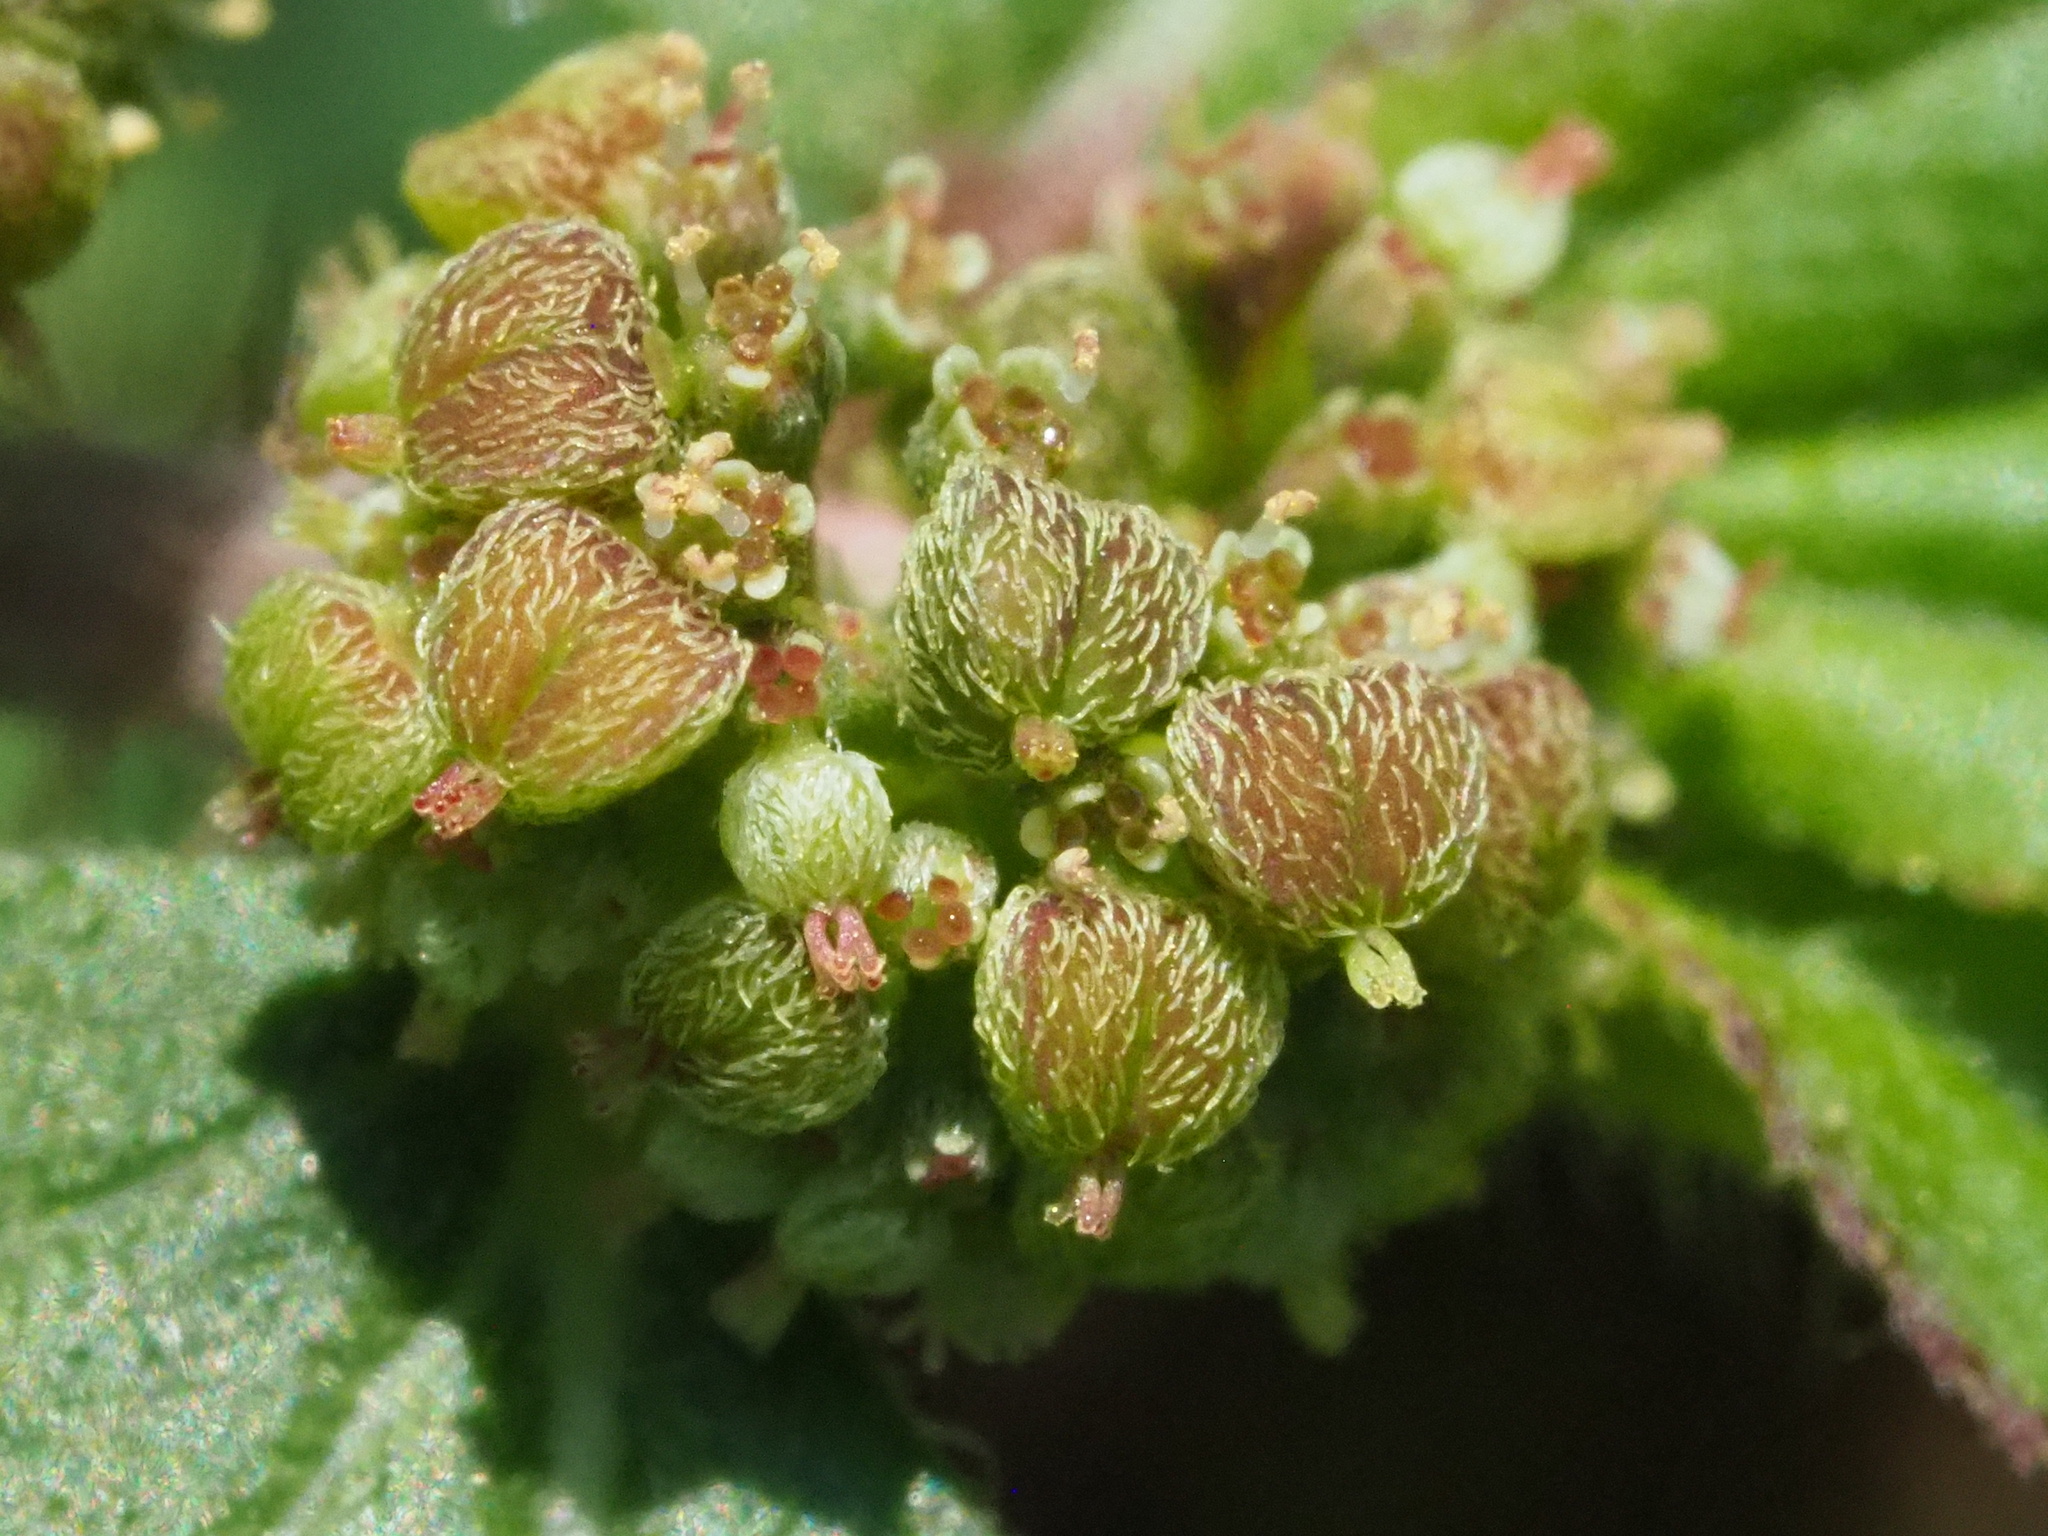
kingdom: Plantae
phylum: Tracheophyta
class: Magnoliopsida
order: Malpighiales
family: Euphorbiaceae
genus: Euphorbia
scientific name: Euphorbia hirta
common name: Pillpod sandmat
